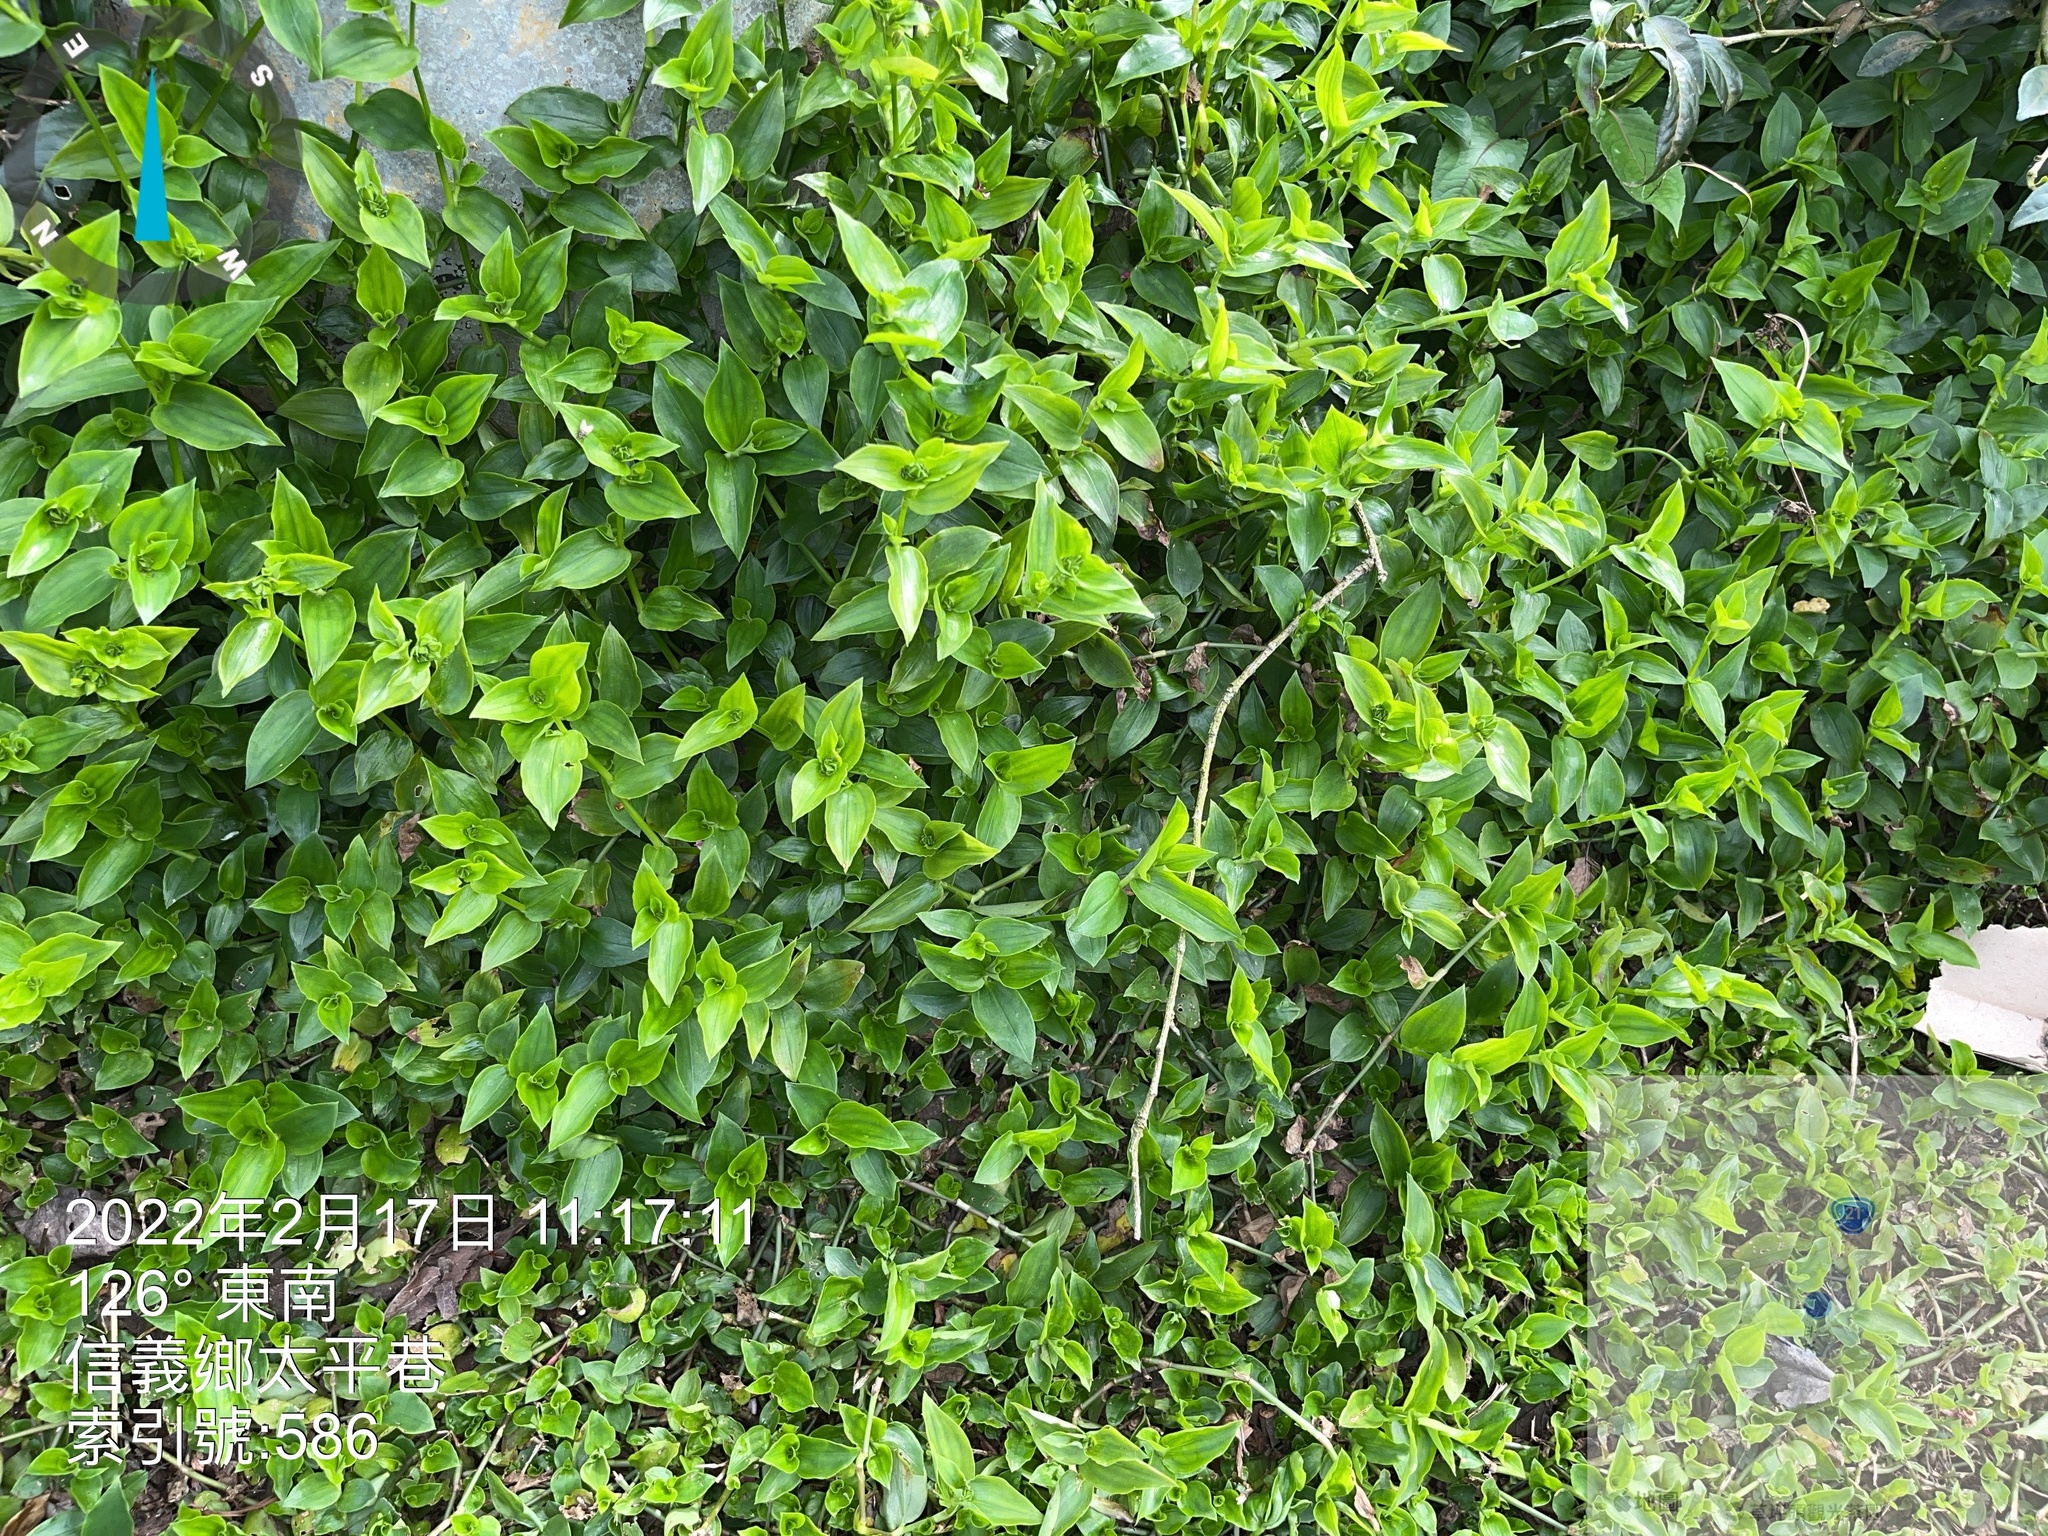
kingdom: Plantae
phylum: Tracheophyta
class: Liliopsida
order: Commelinales
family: Commelinaceae
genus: Tradescantia
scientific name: Tradescantia fluminensis
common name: Wandering-jew
